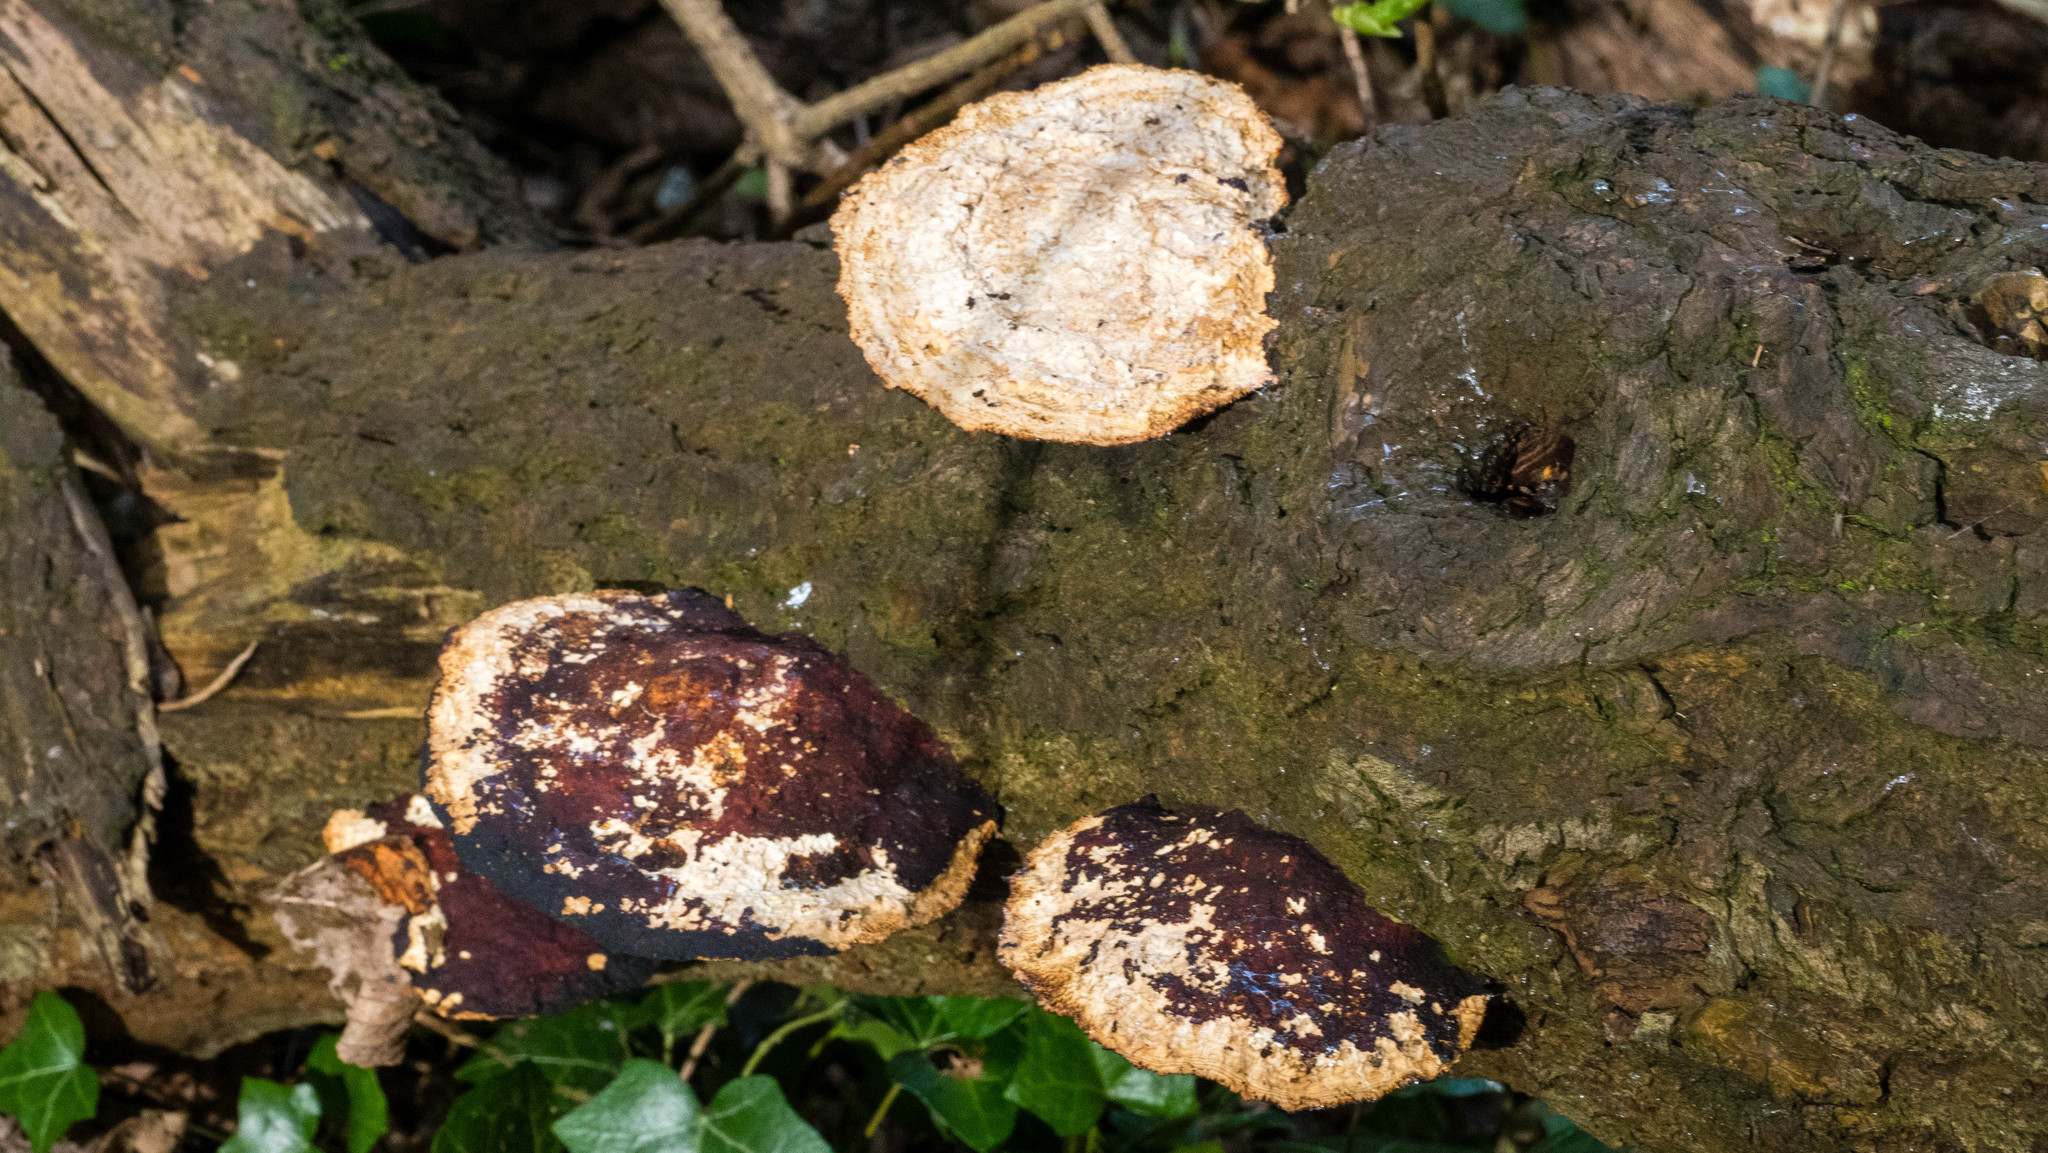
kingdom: Fungi
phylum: Basidiomycota
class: Agaricomycetes
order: Polyporales
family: Polyporaceae
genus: Daedaleopsis
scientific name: Daedaleopsis confragosa
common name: Blushing bracket
